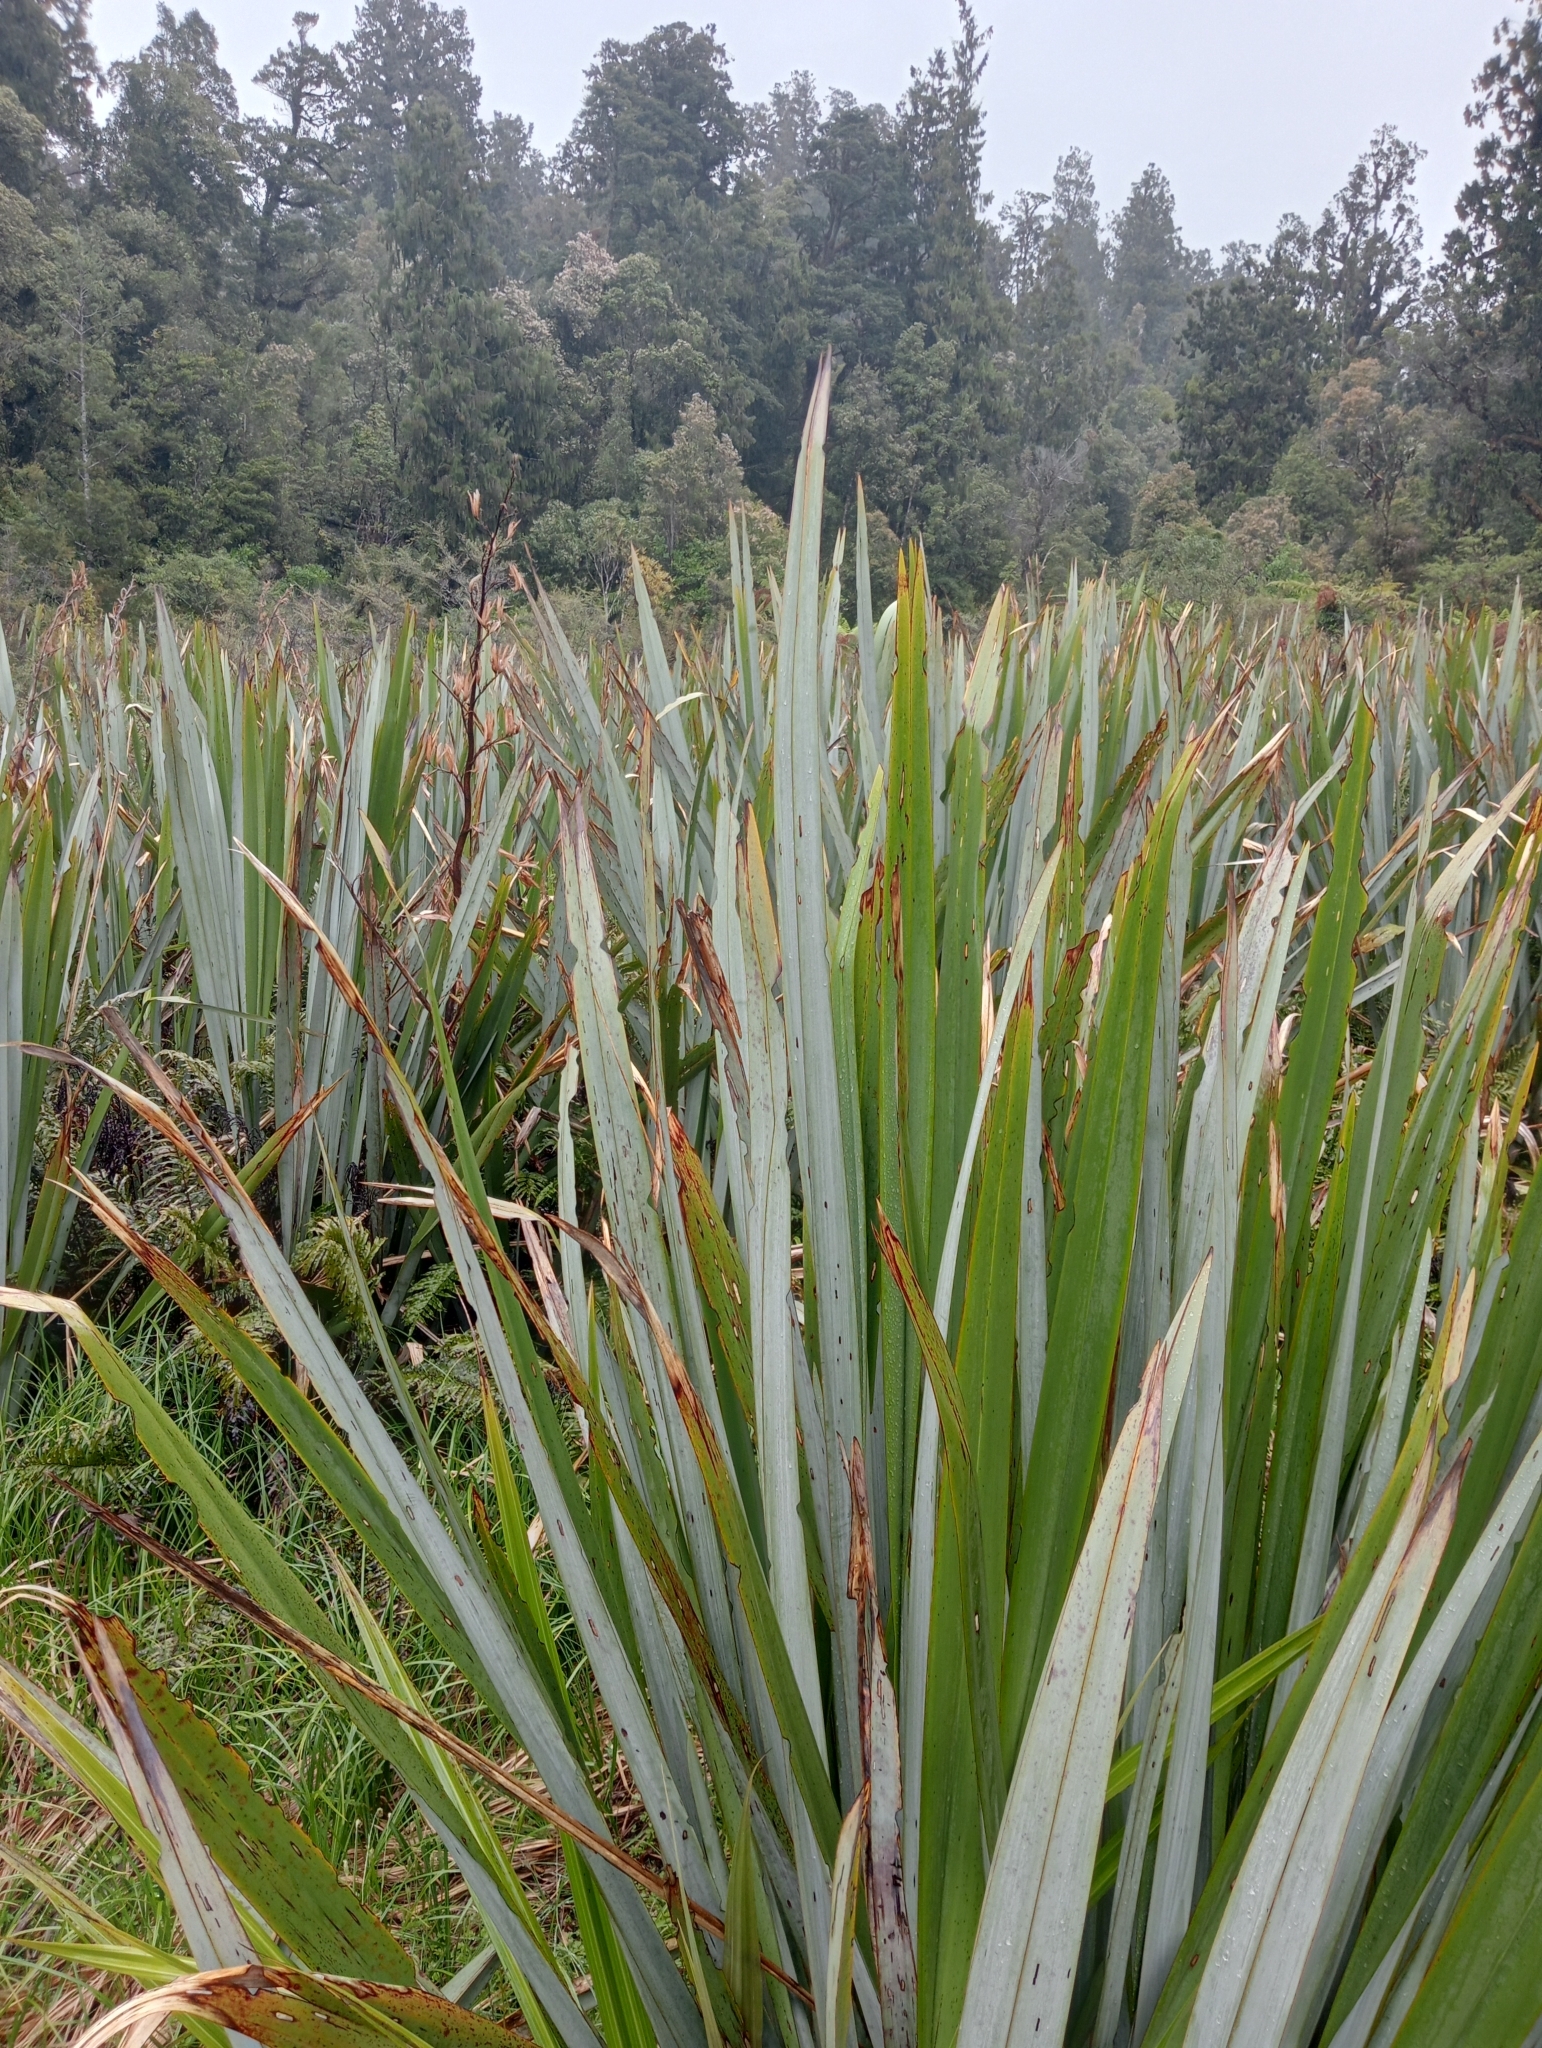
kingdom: Plantae
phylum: Tracheophyta
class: Liliopsida
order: Asparagales
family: Asphodelaceae
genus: Phormium
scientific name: Phormium tenax
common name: New zealand flax
